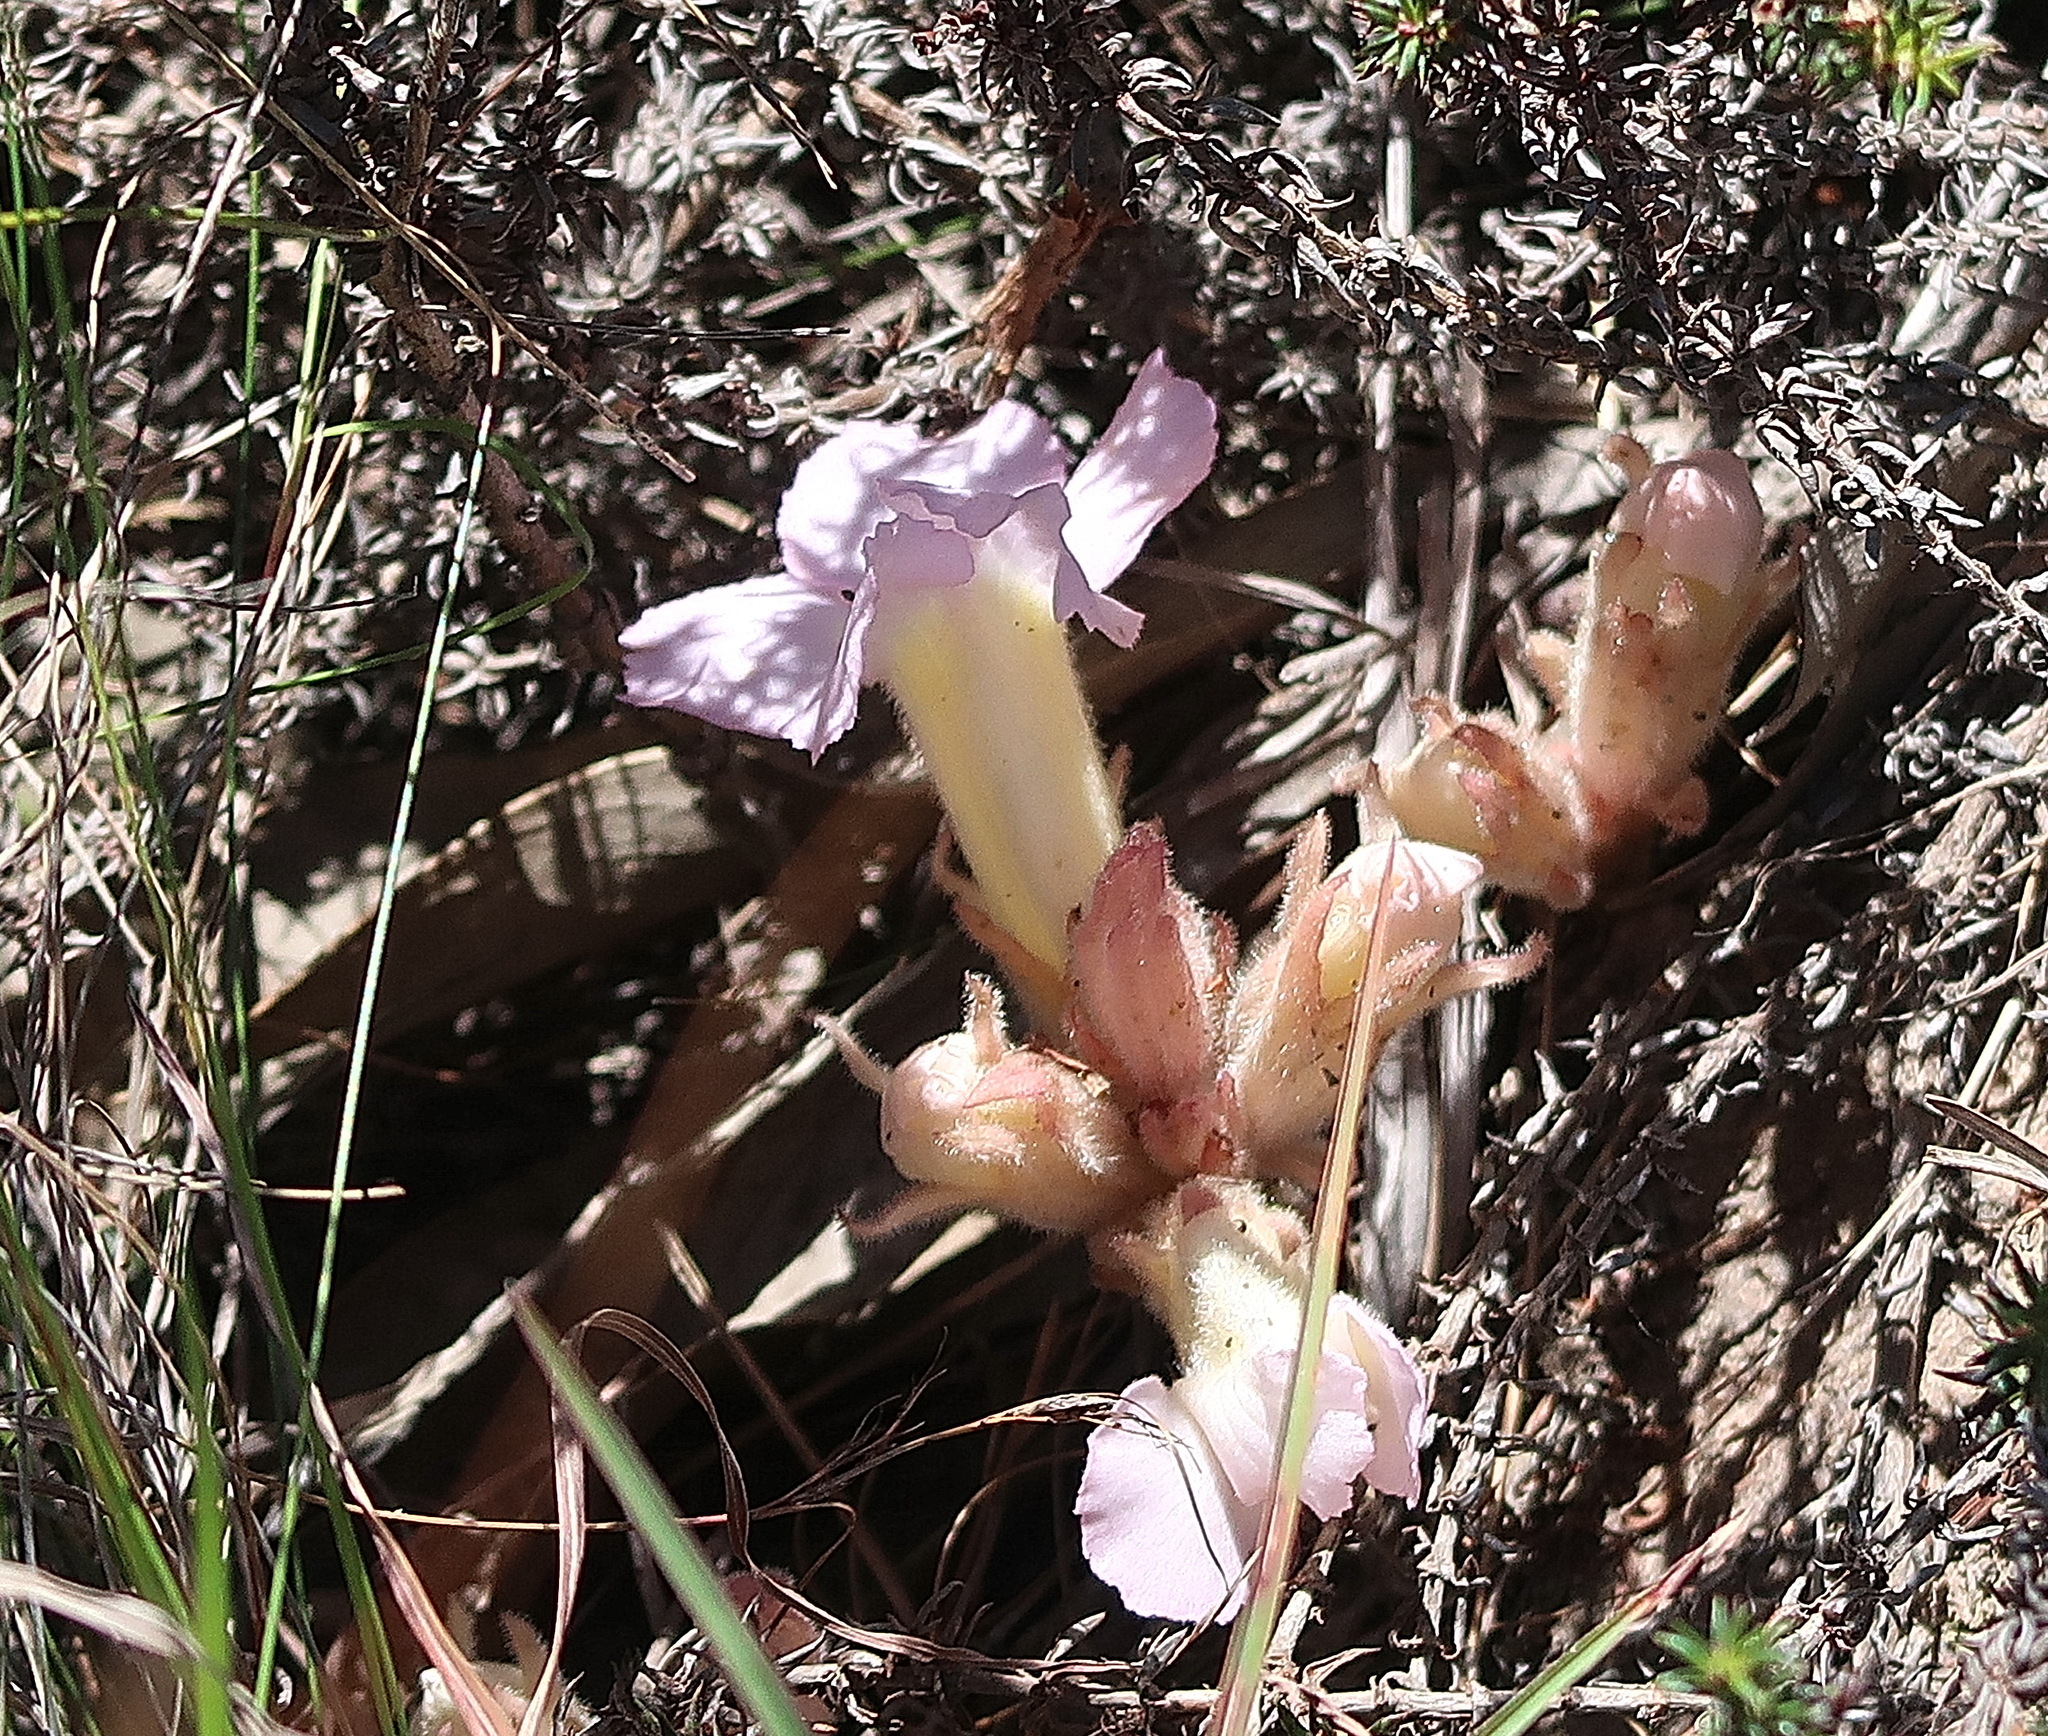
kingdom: Plantae
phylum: Tracheophyta
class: Magnoliopsida
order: Lamiales
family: Orobanchaceae
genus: Harveya
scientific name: Harveya purpurea
